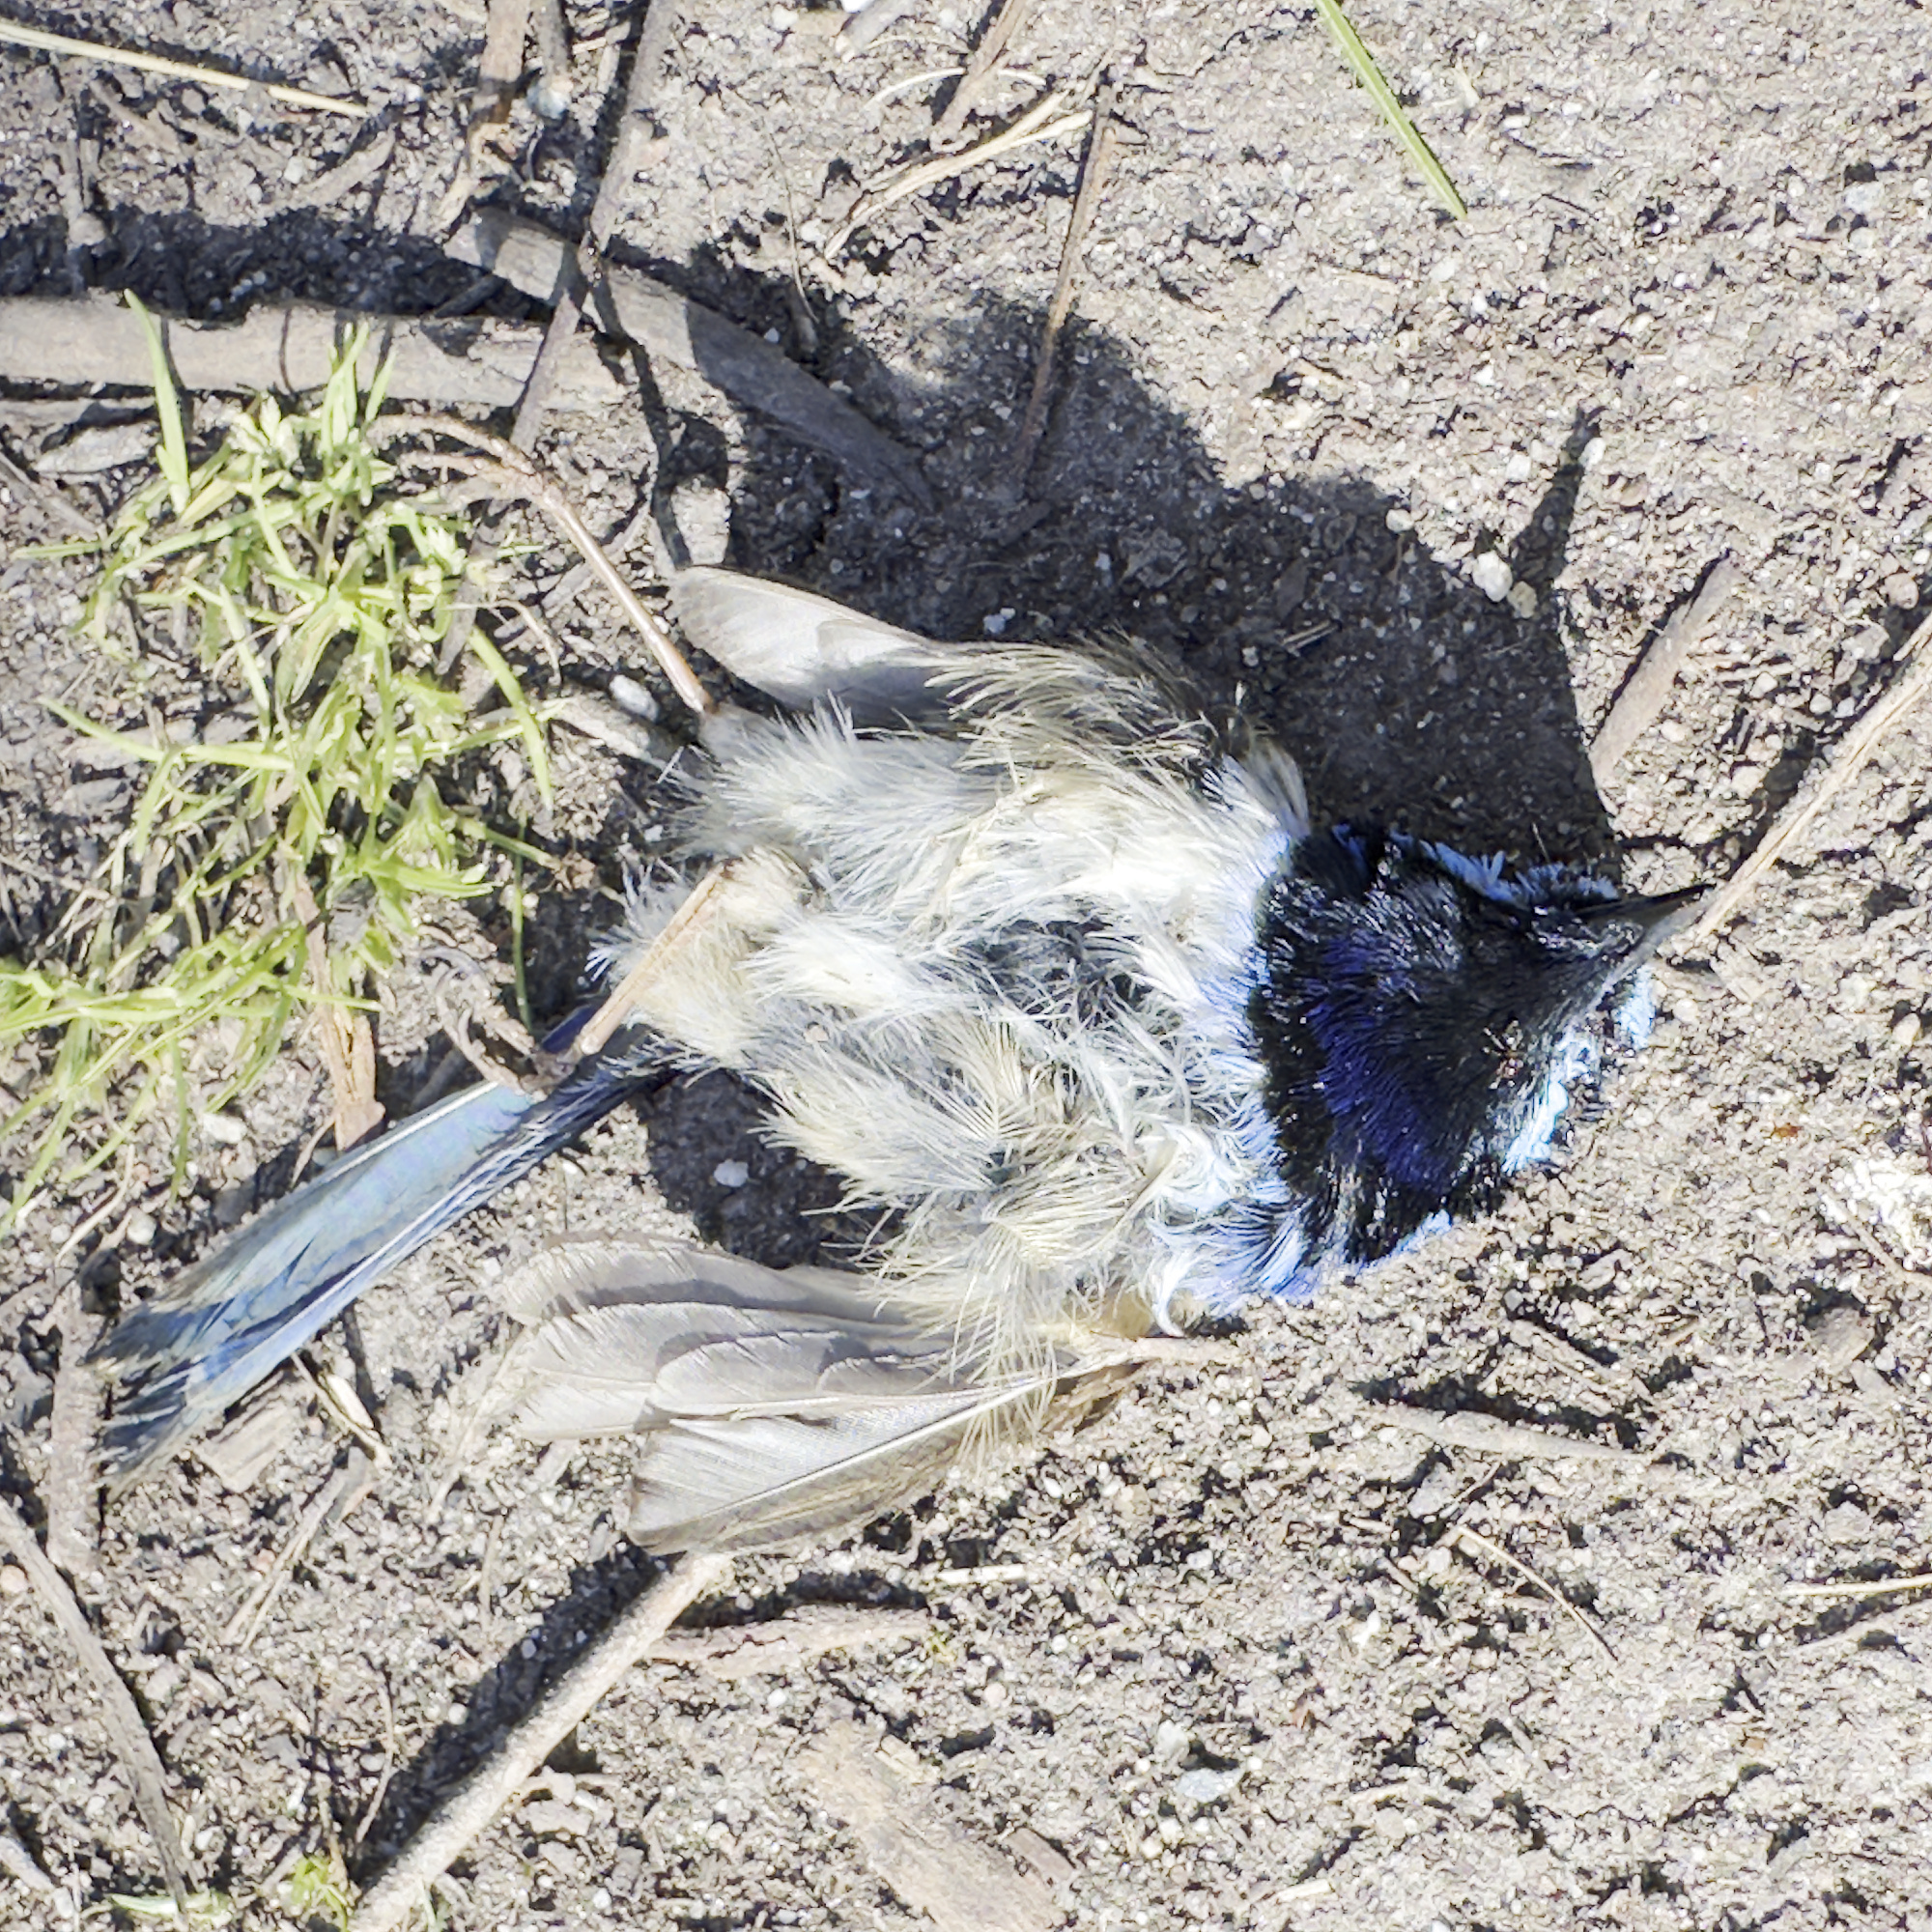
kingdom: Animalia
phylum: Chordata
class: Aves
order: Passeriformes
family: Maluridae
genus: Malurus
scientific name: Malurus cyaneus
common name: Superb fairywren
